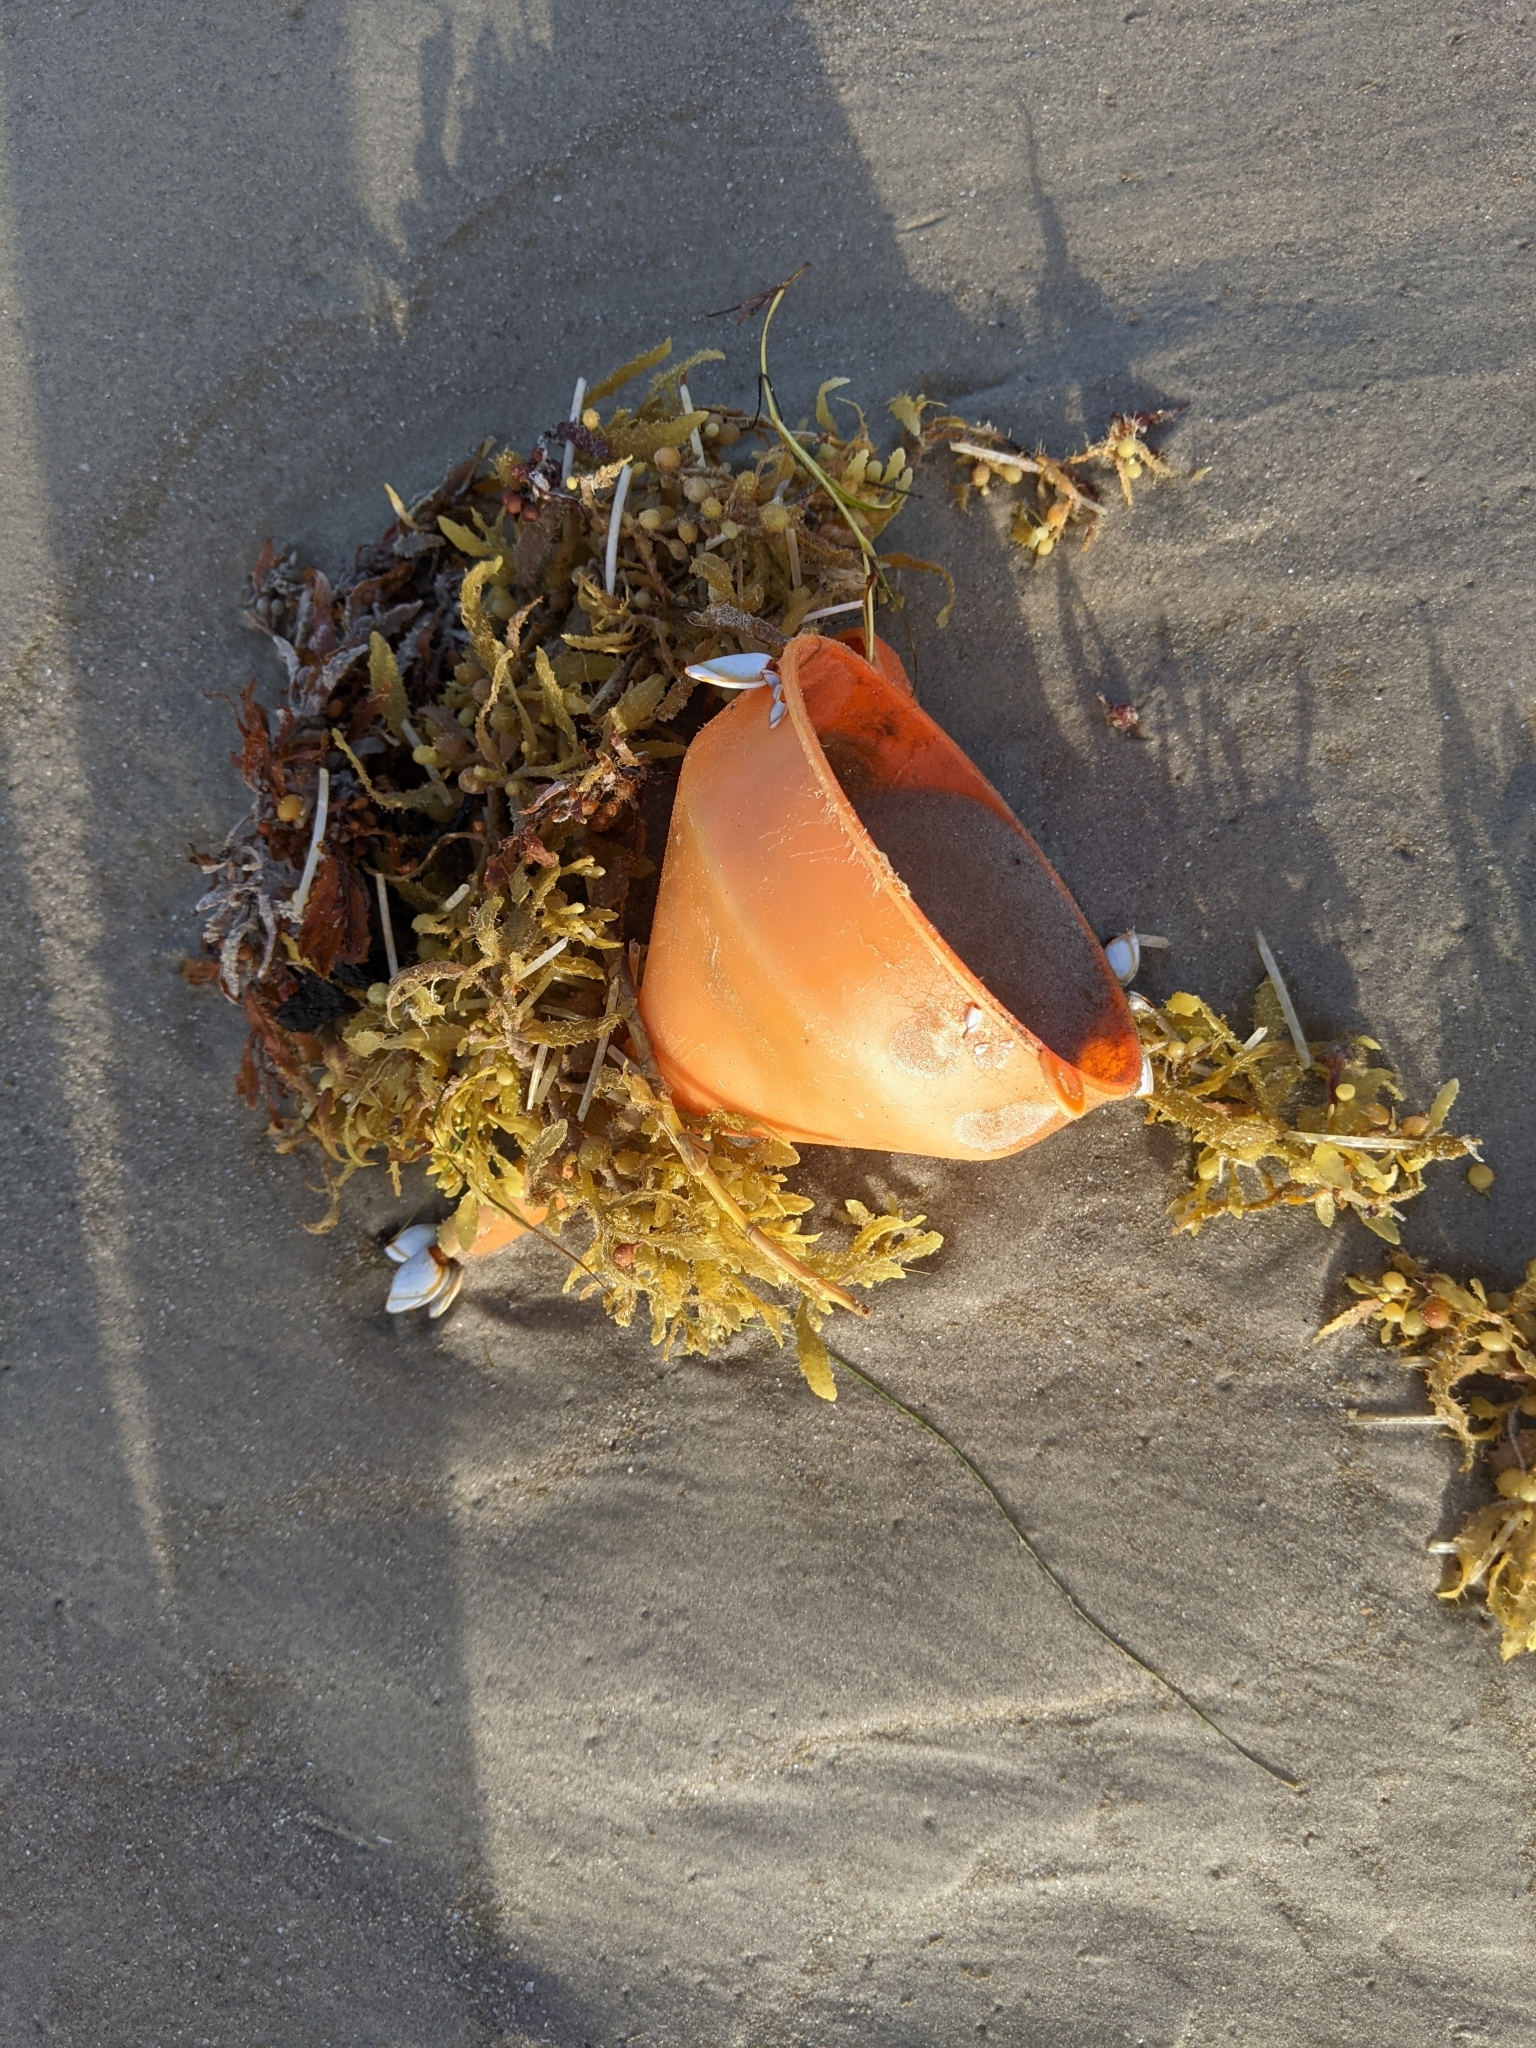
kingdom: Animalia
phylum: Arthropoda
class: Maxillopoda
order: Pedunculata
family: Lepadidae
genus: Lepas
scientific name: Lepas anserifera
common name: Goose barnacle
